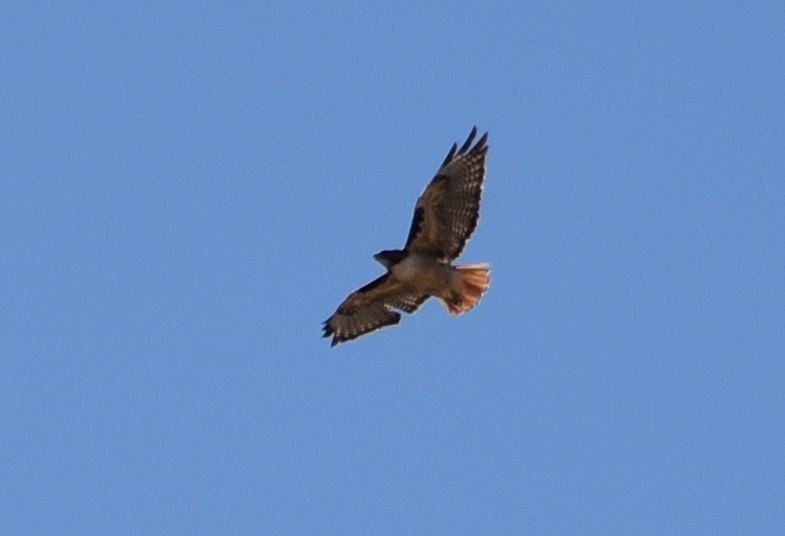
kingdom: Animalia
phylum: Chordata
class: Aves
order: Accipitriformes
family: Accipitridae
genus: Buteo
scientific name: Buteo jamaicensis
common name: Red-tailed hawk
